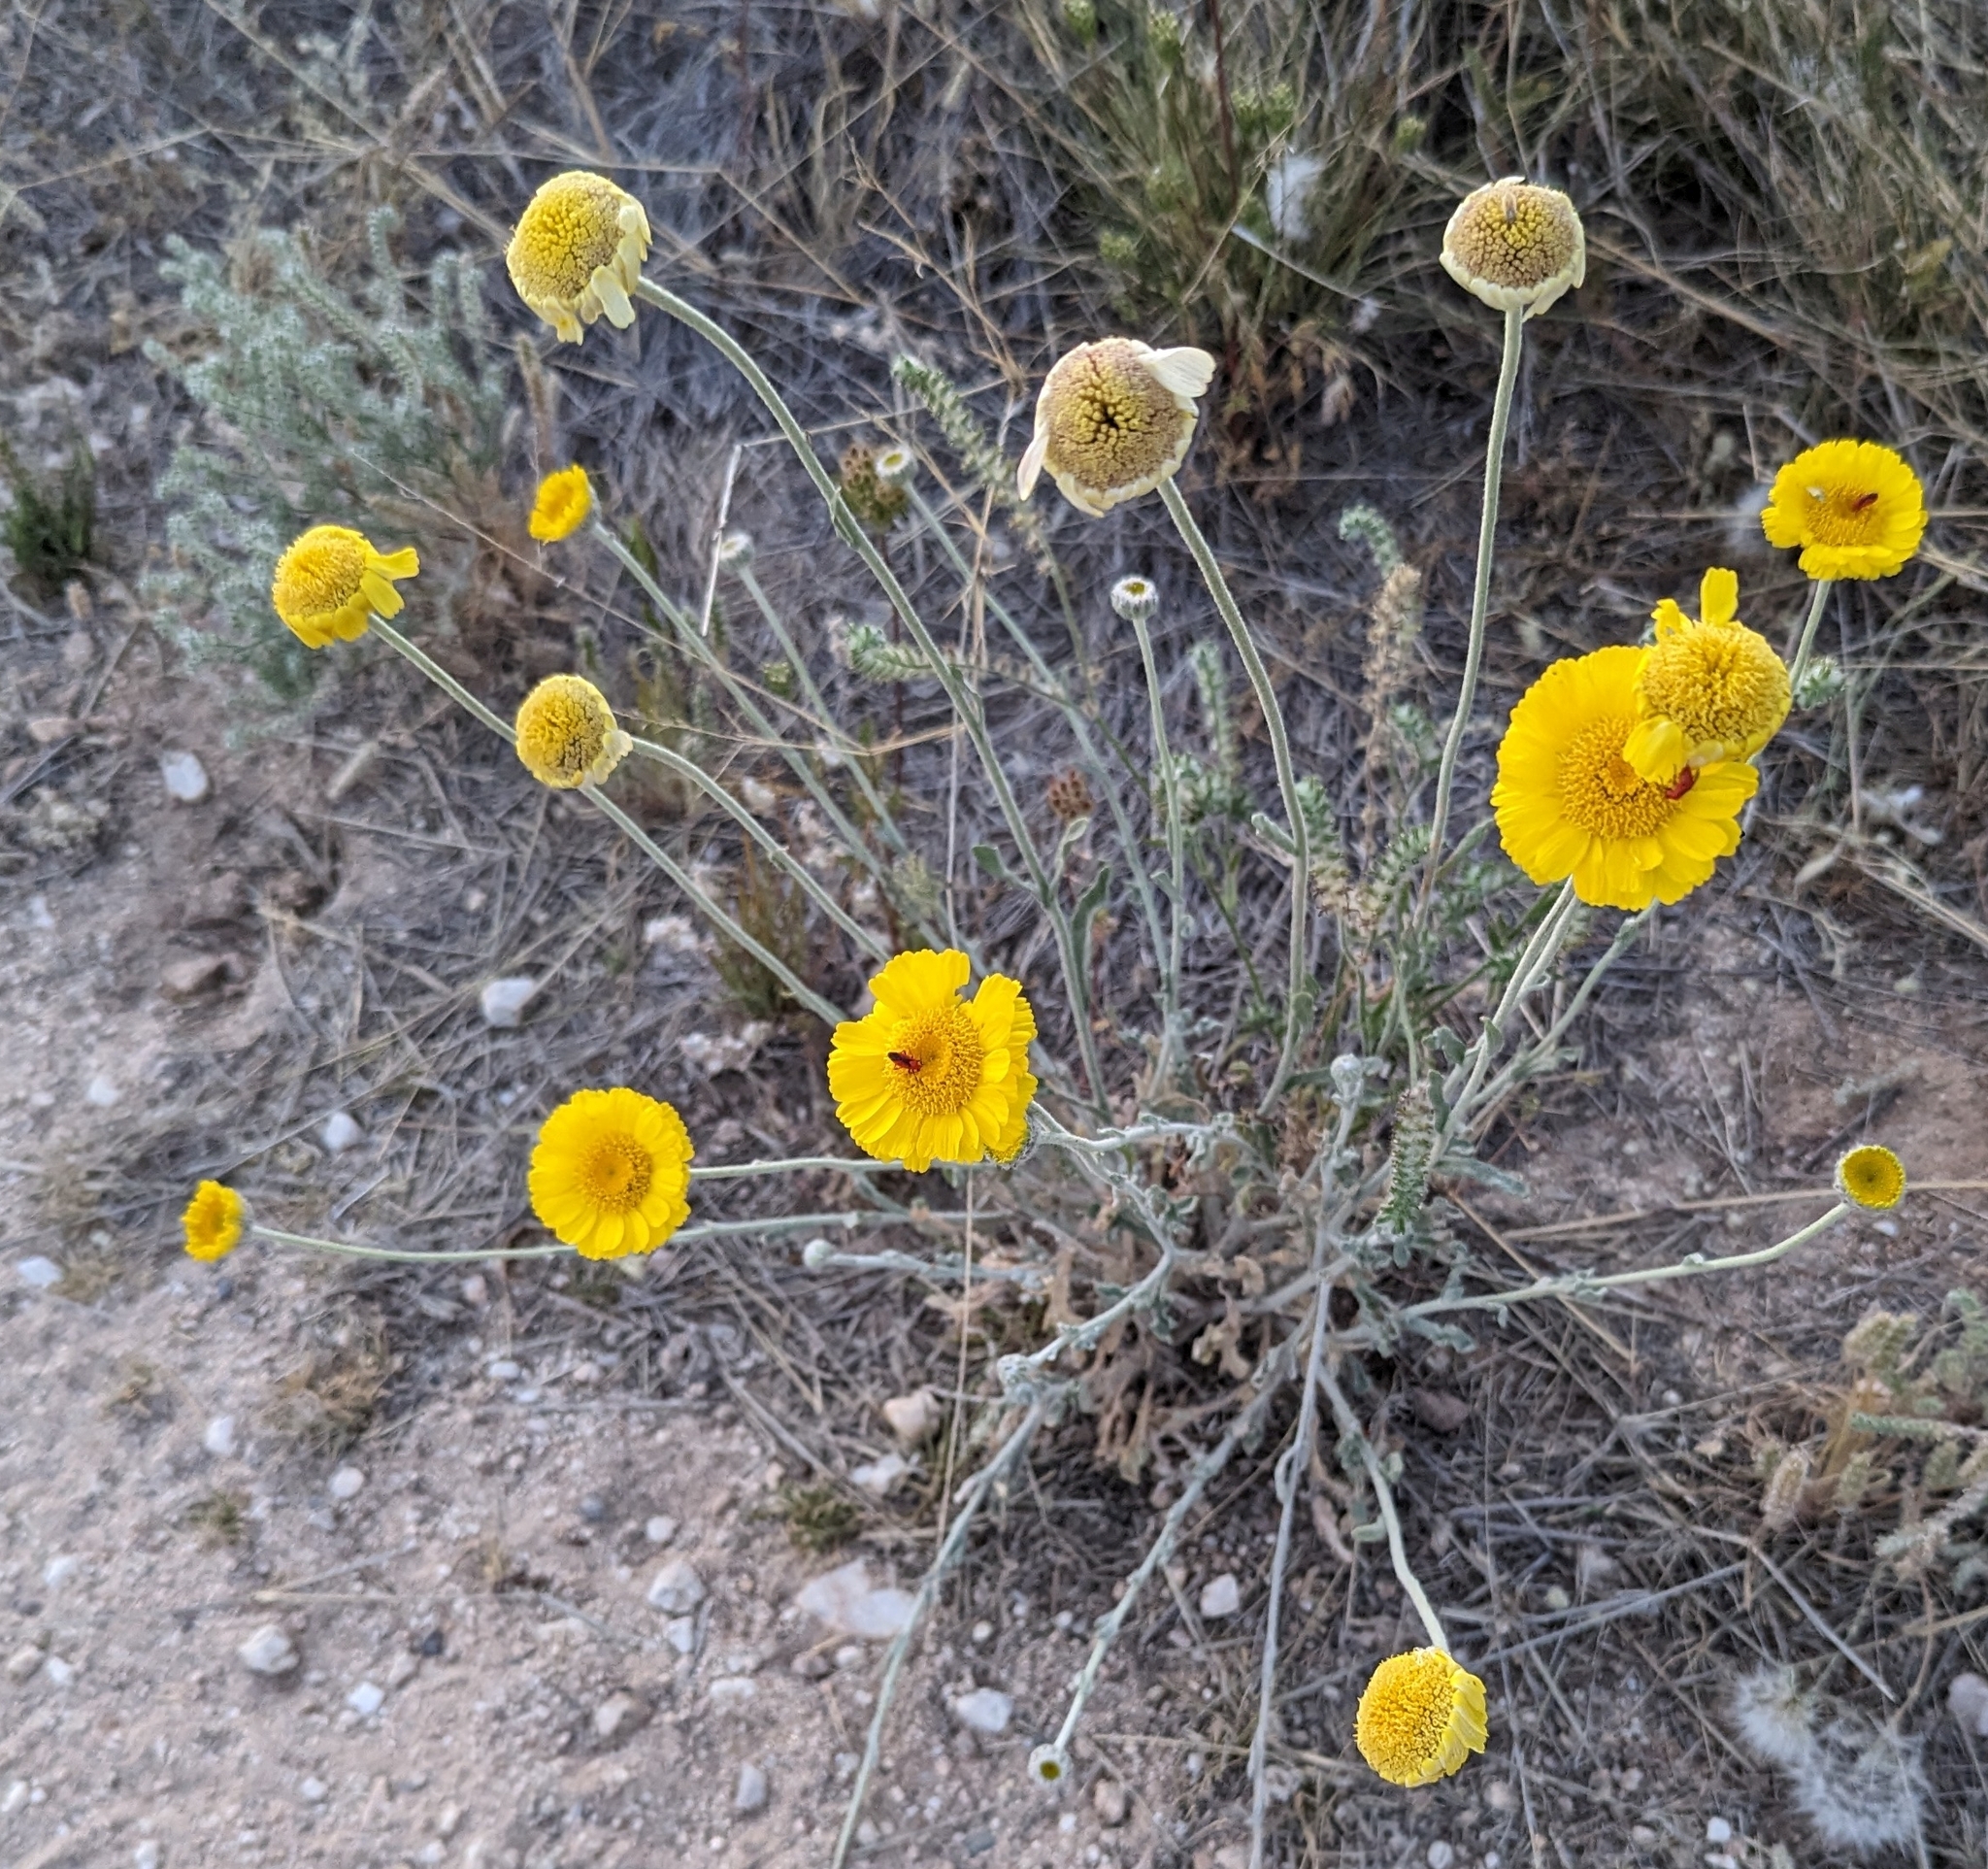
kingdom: Plantae
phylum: Tracheophyta
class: Magnoliopsida
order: Asterales
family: Asteraceae
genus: Baileya
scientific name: Baileya multiradiata
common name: Desert-marigold
